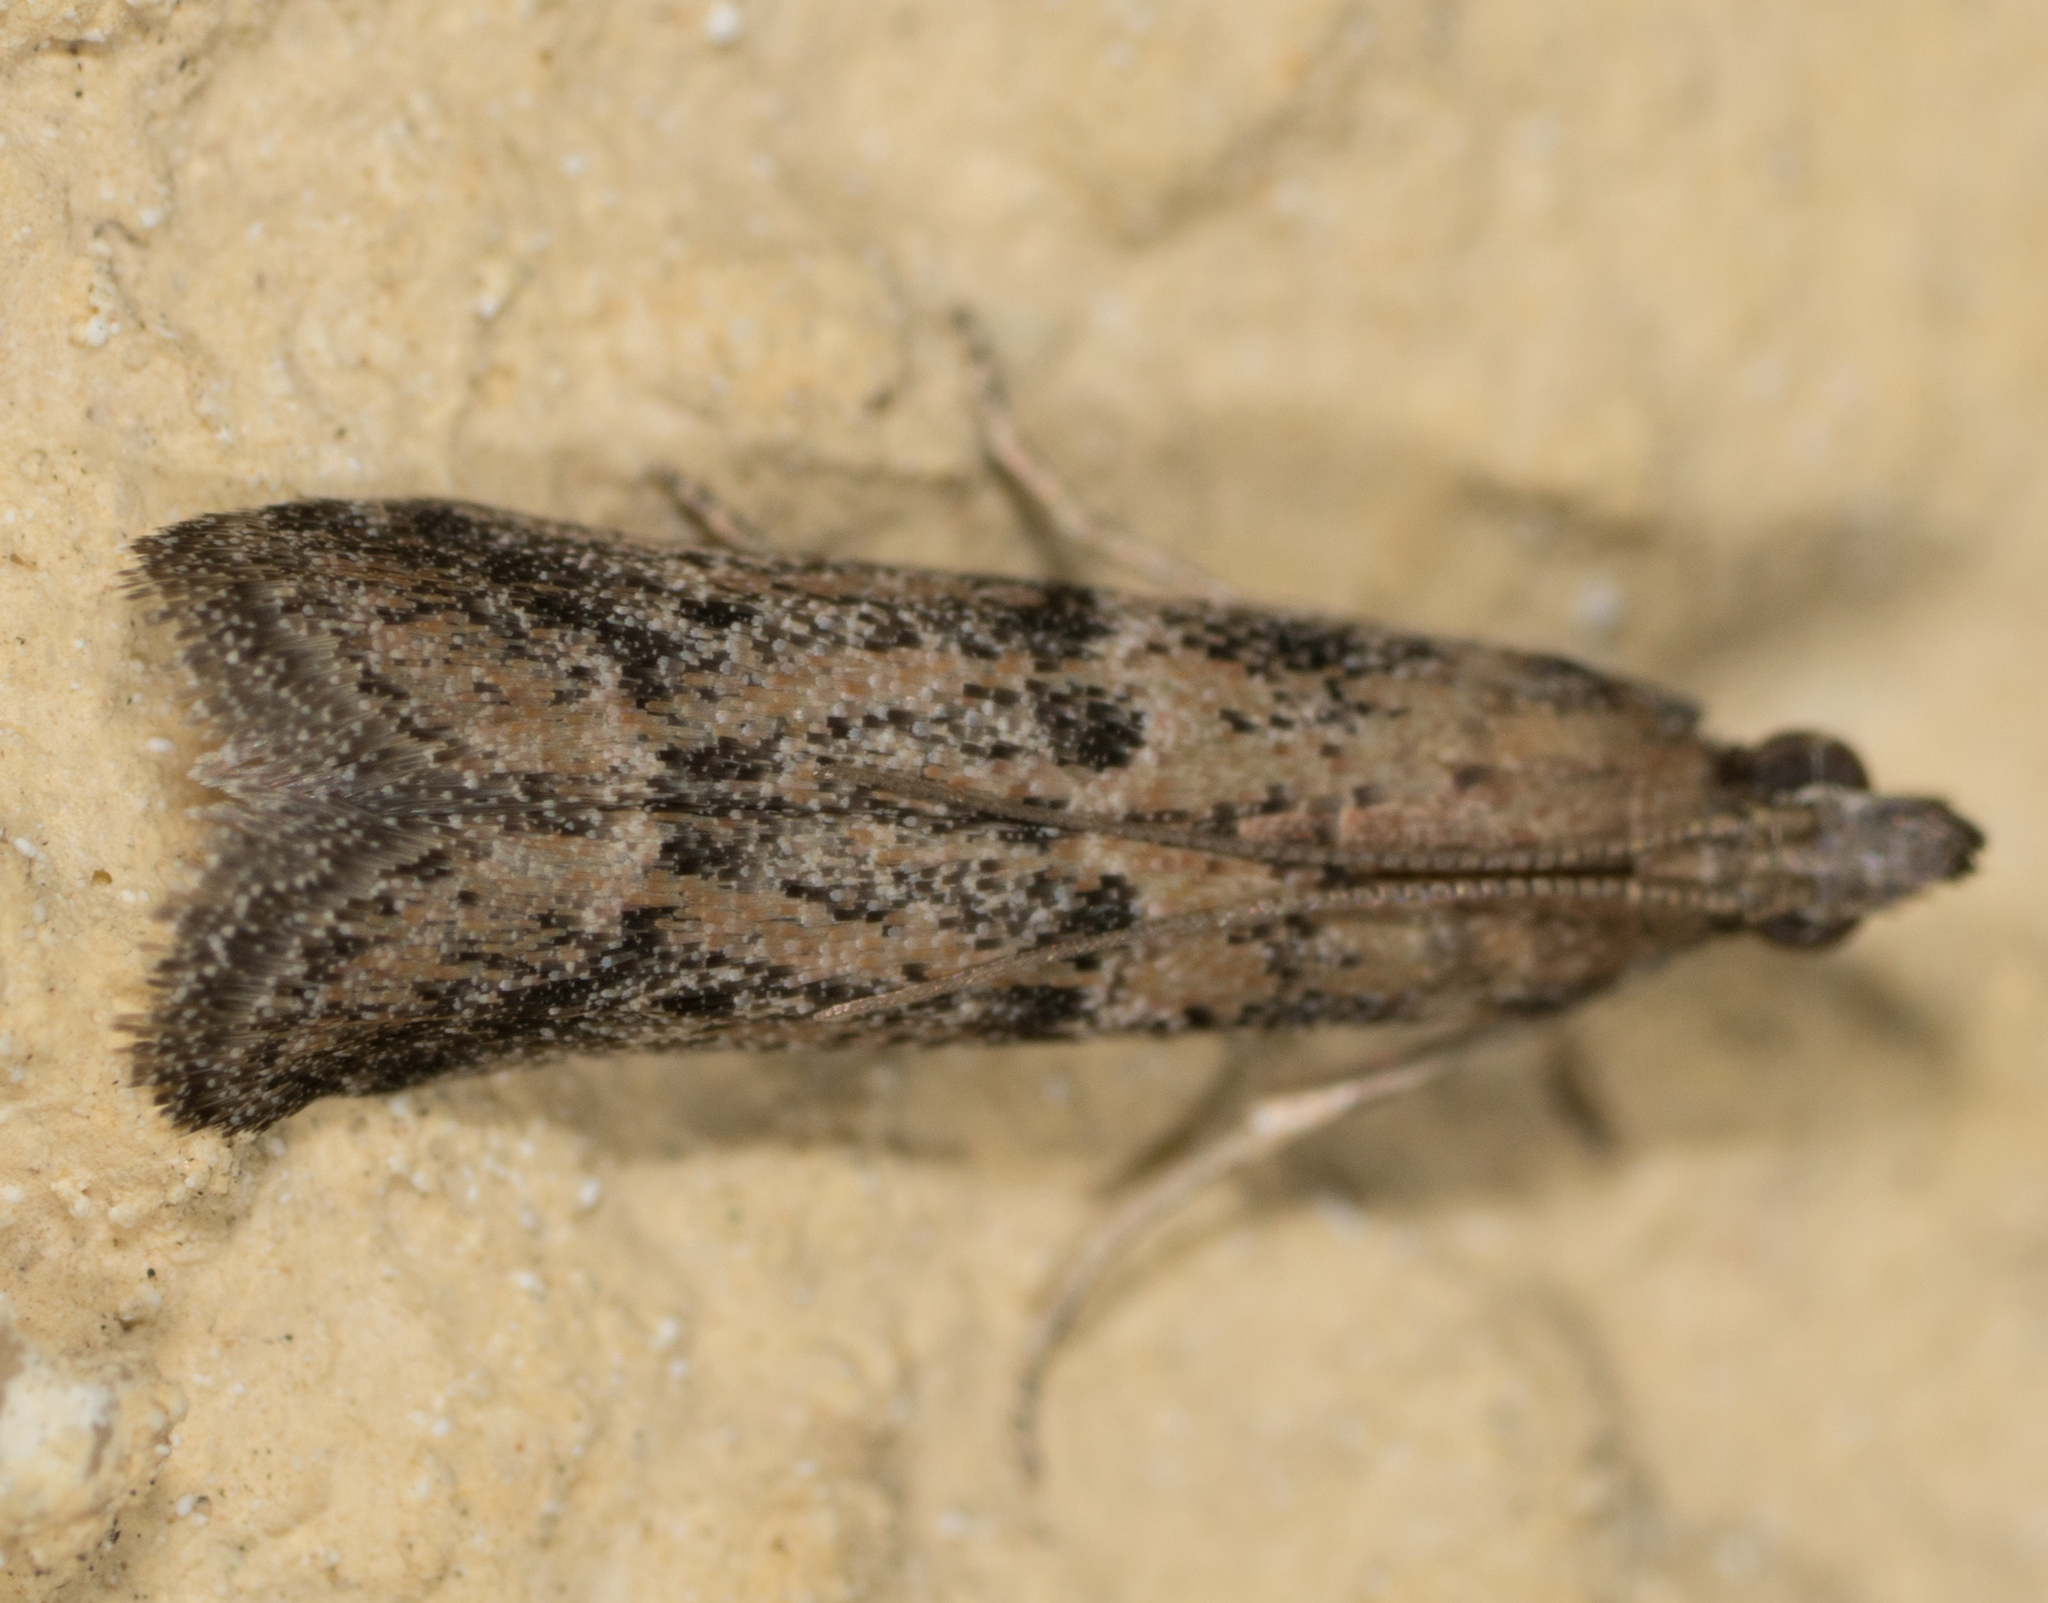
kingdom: Animalia
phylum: Arthropoda
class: Insecta
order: Lepidoptera
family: Pyralidae
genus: Ephestiodes
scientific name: Ephestiodes gilvescentella
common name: Moth
